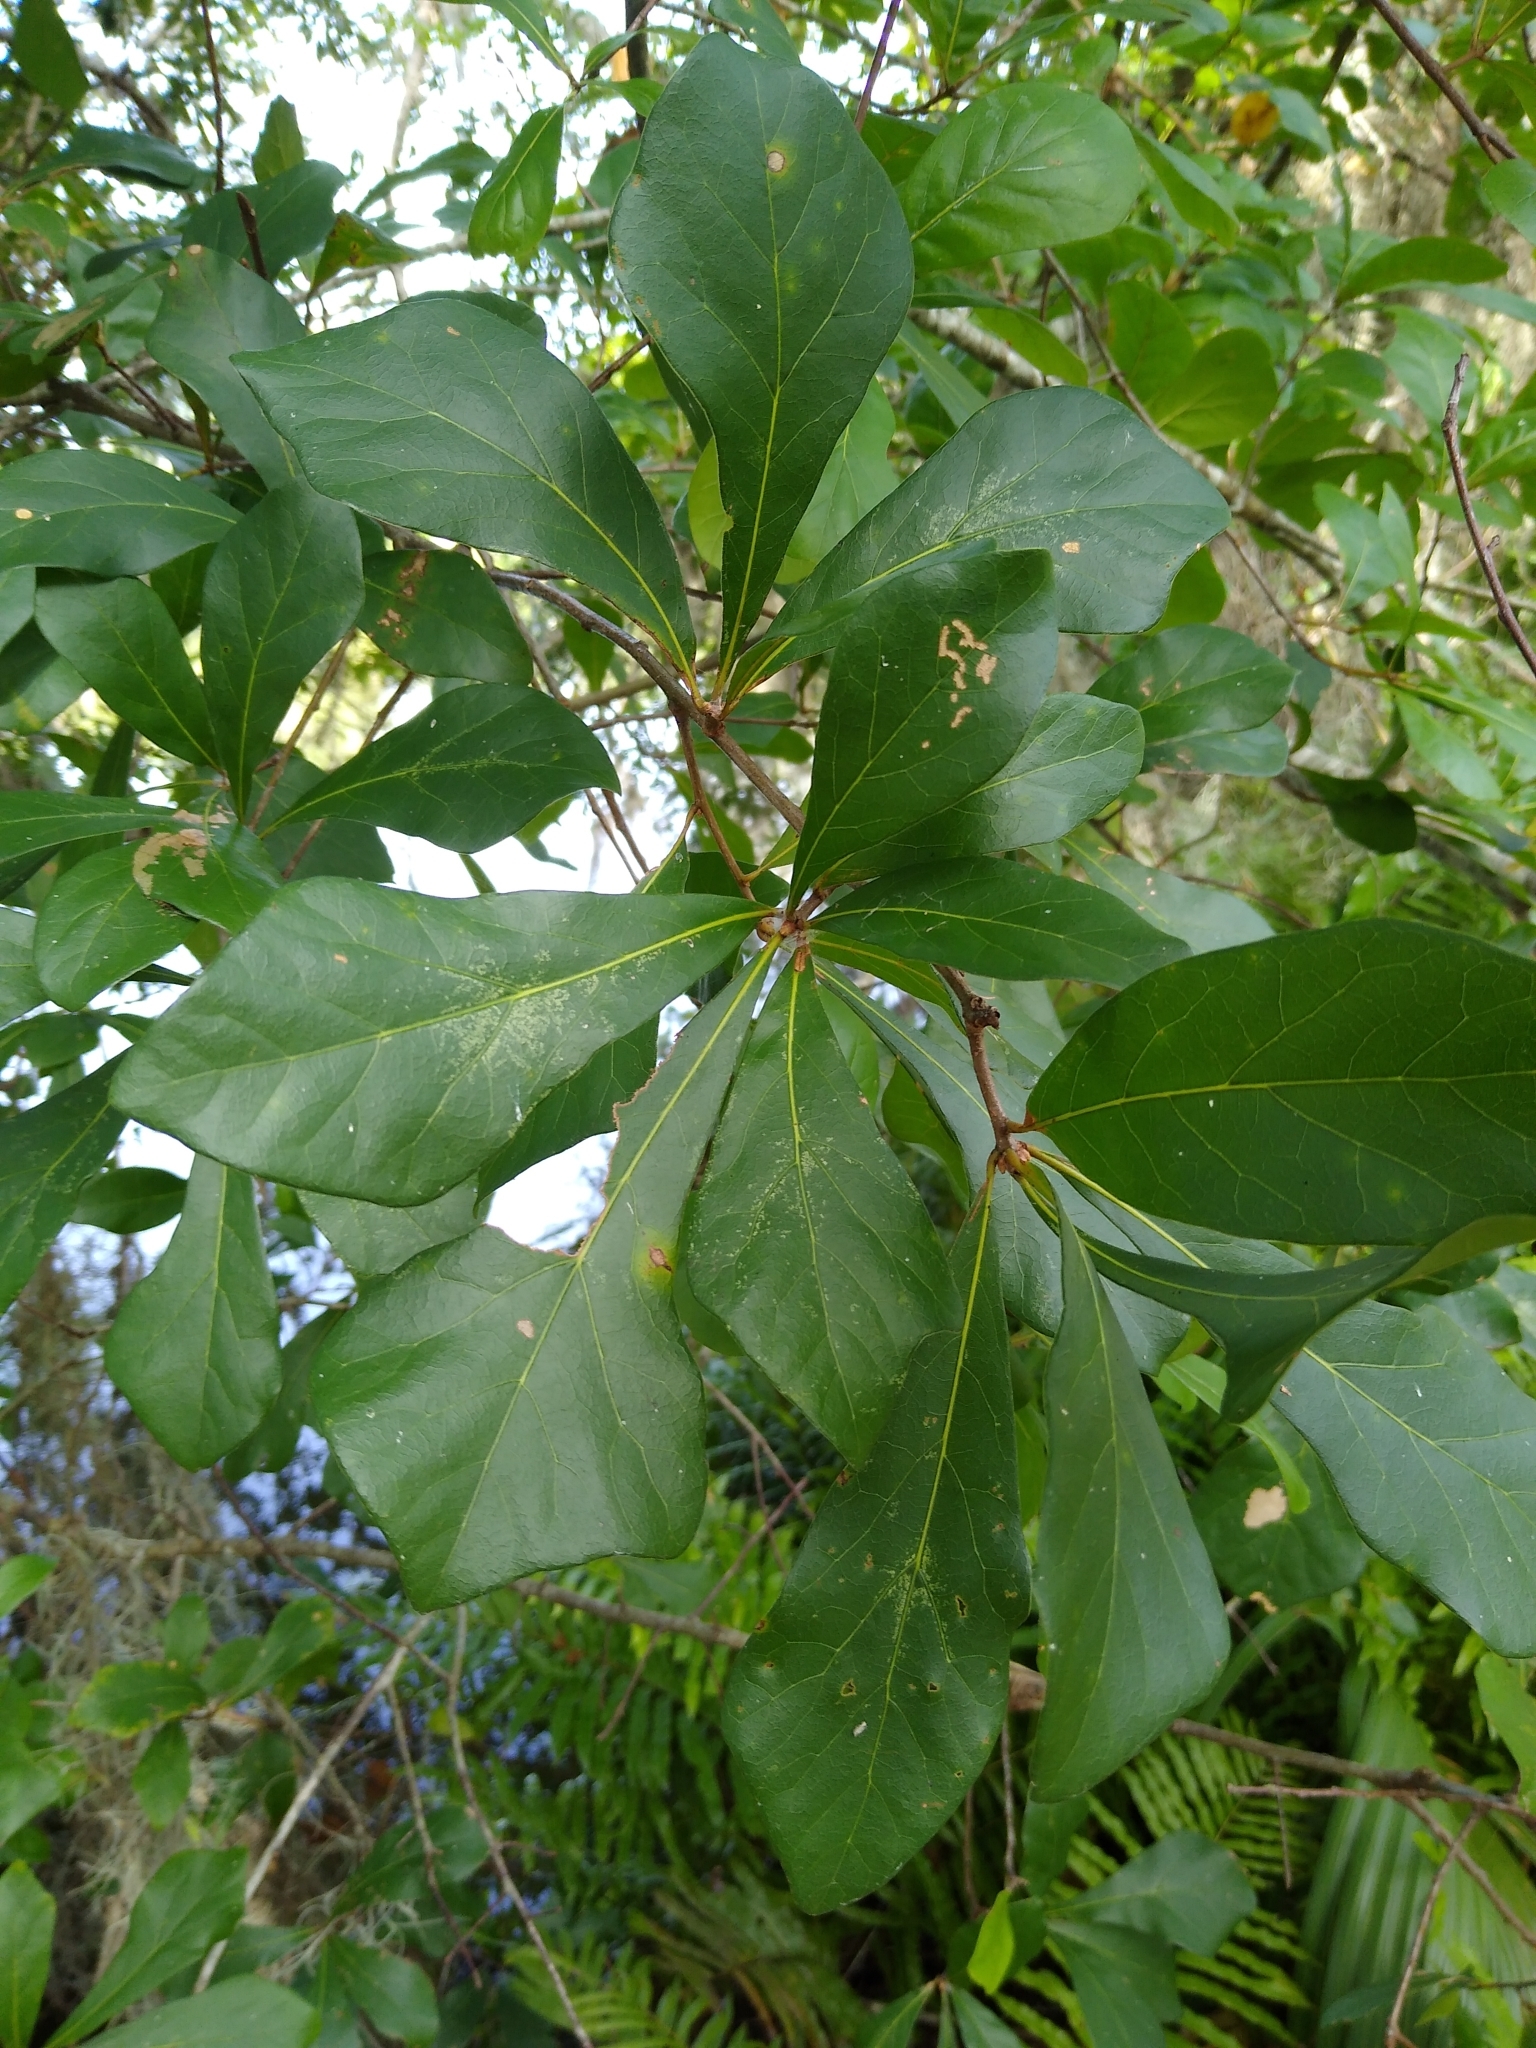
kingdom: Plantae
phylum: Tracheophyta
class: Magnoliopsida
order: Fagales
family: Fagaceae
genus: Quercus
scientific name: Quercus nigra
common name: Water oak
